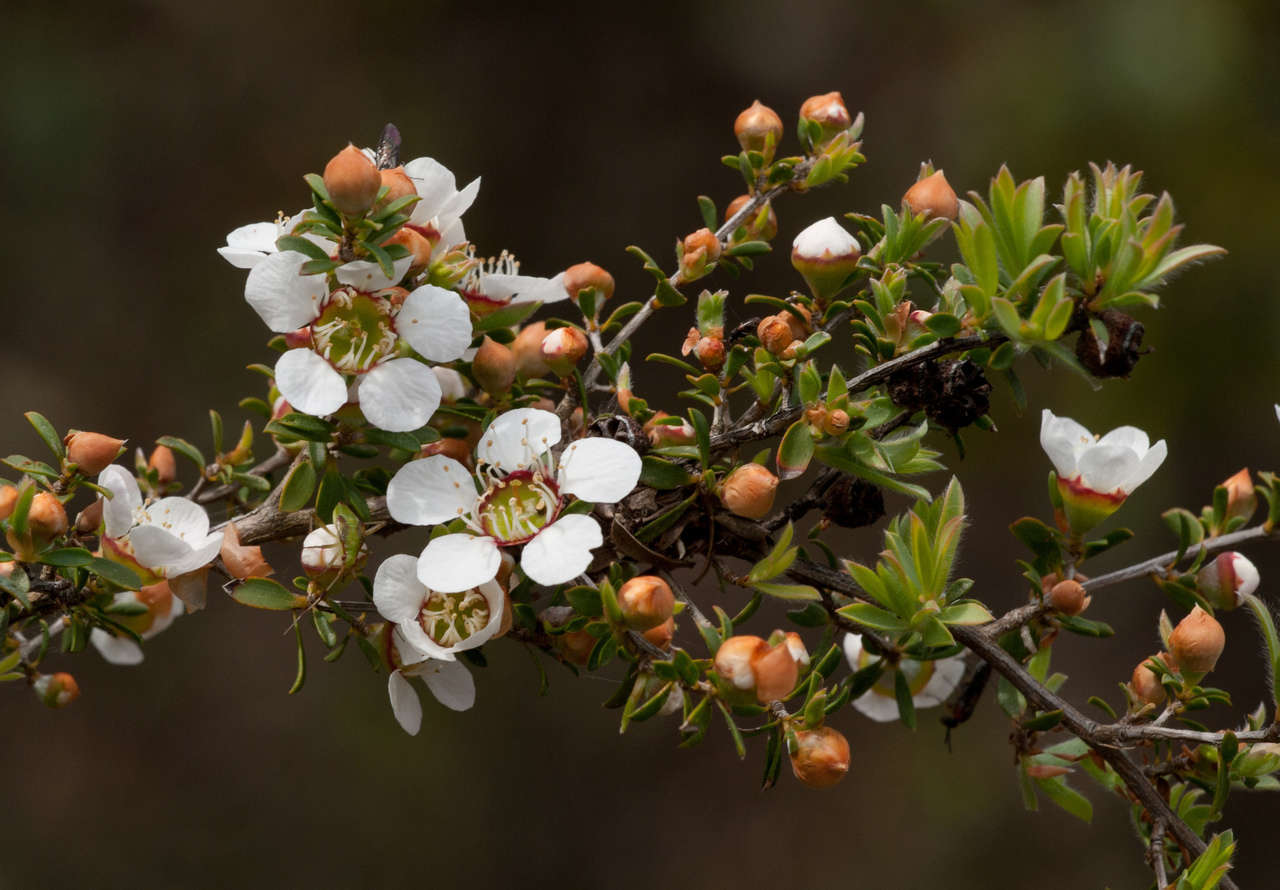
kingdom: Plantae
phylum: Tracheophyta
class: Magnoliopsida
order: Myrtales
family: Myrtaceae
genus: Leptospermum
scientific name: Leptospermum myrsinoides
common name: Heath teatree
